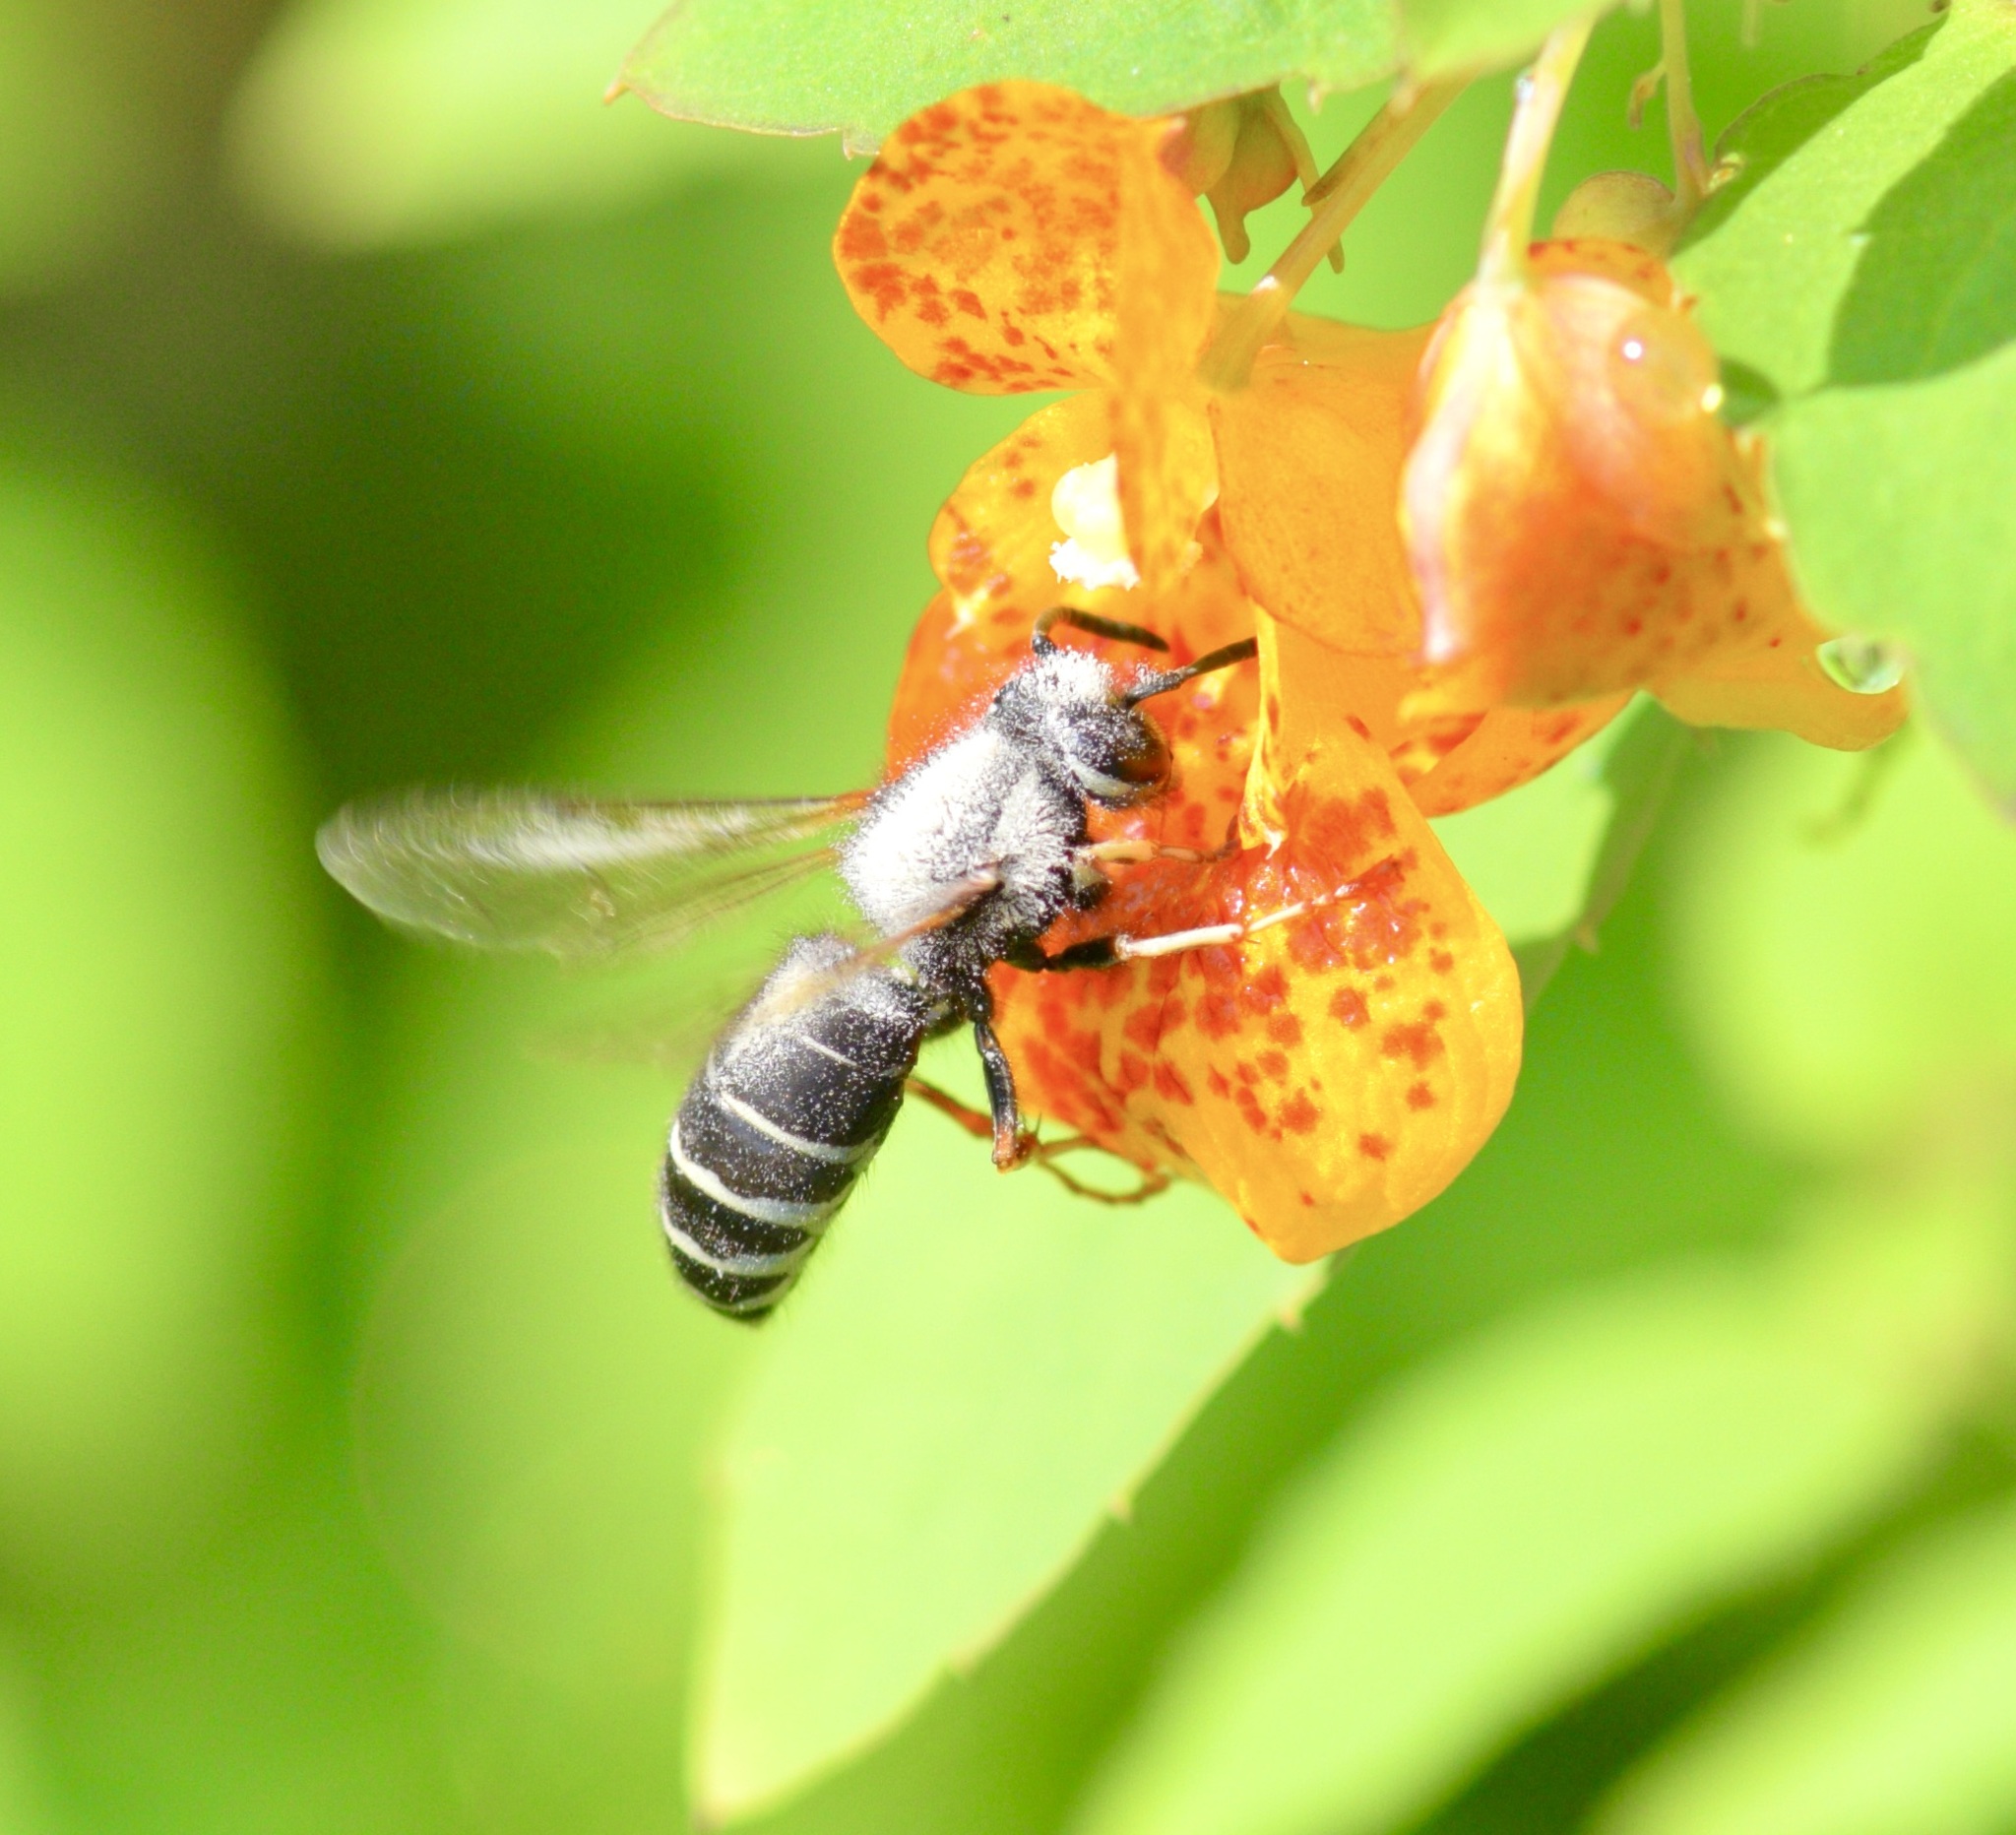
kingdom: Animalia
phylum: Arthropoda
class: Insecta
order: Hymenoptera
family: Vespidae
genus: Vespula
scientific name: Vespula consobrina
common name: Blackjacket
